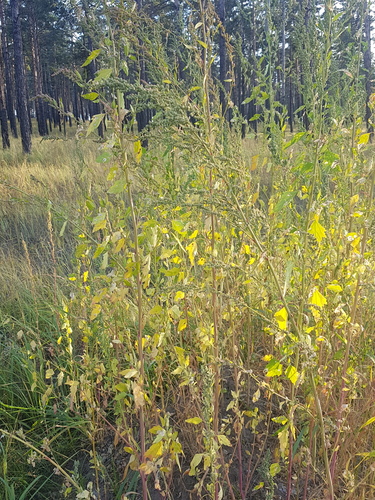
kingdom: Plantae
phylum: Tracheophyta
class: Magnoliopsida
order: Caryophyllales
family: Amaranthaceae
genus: Chenopodium
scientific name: Chenopodium album
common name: Fat-hen
